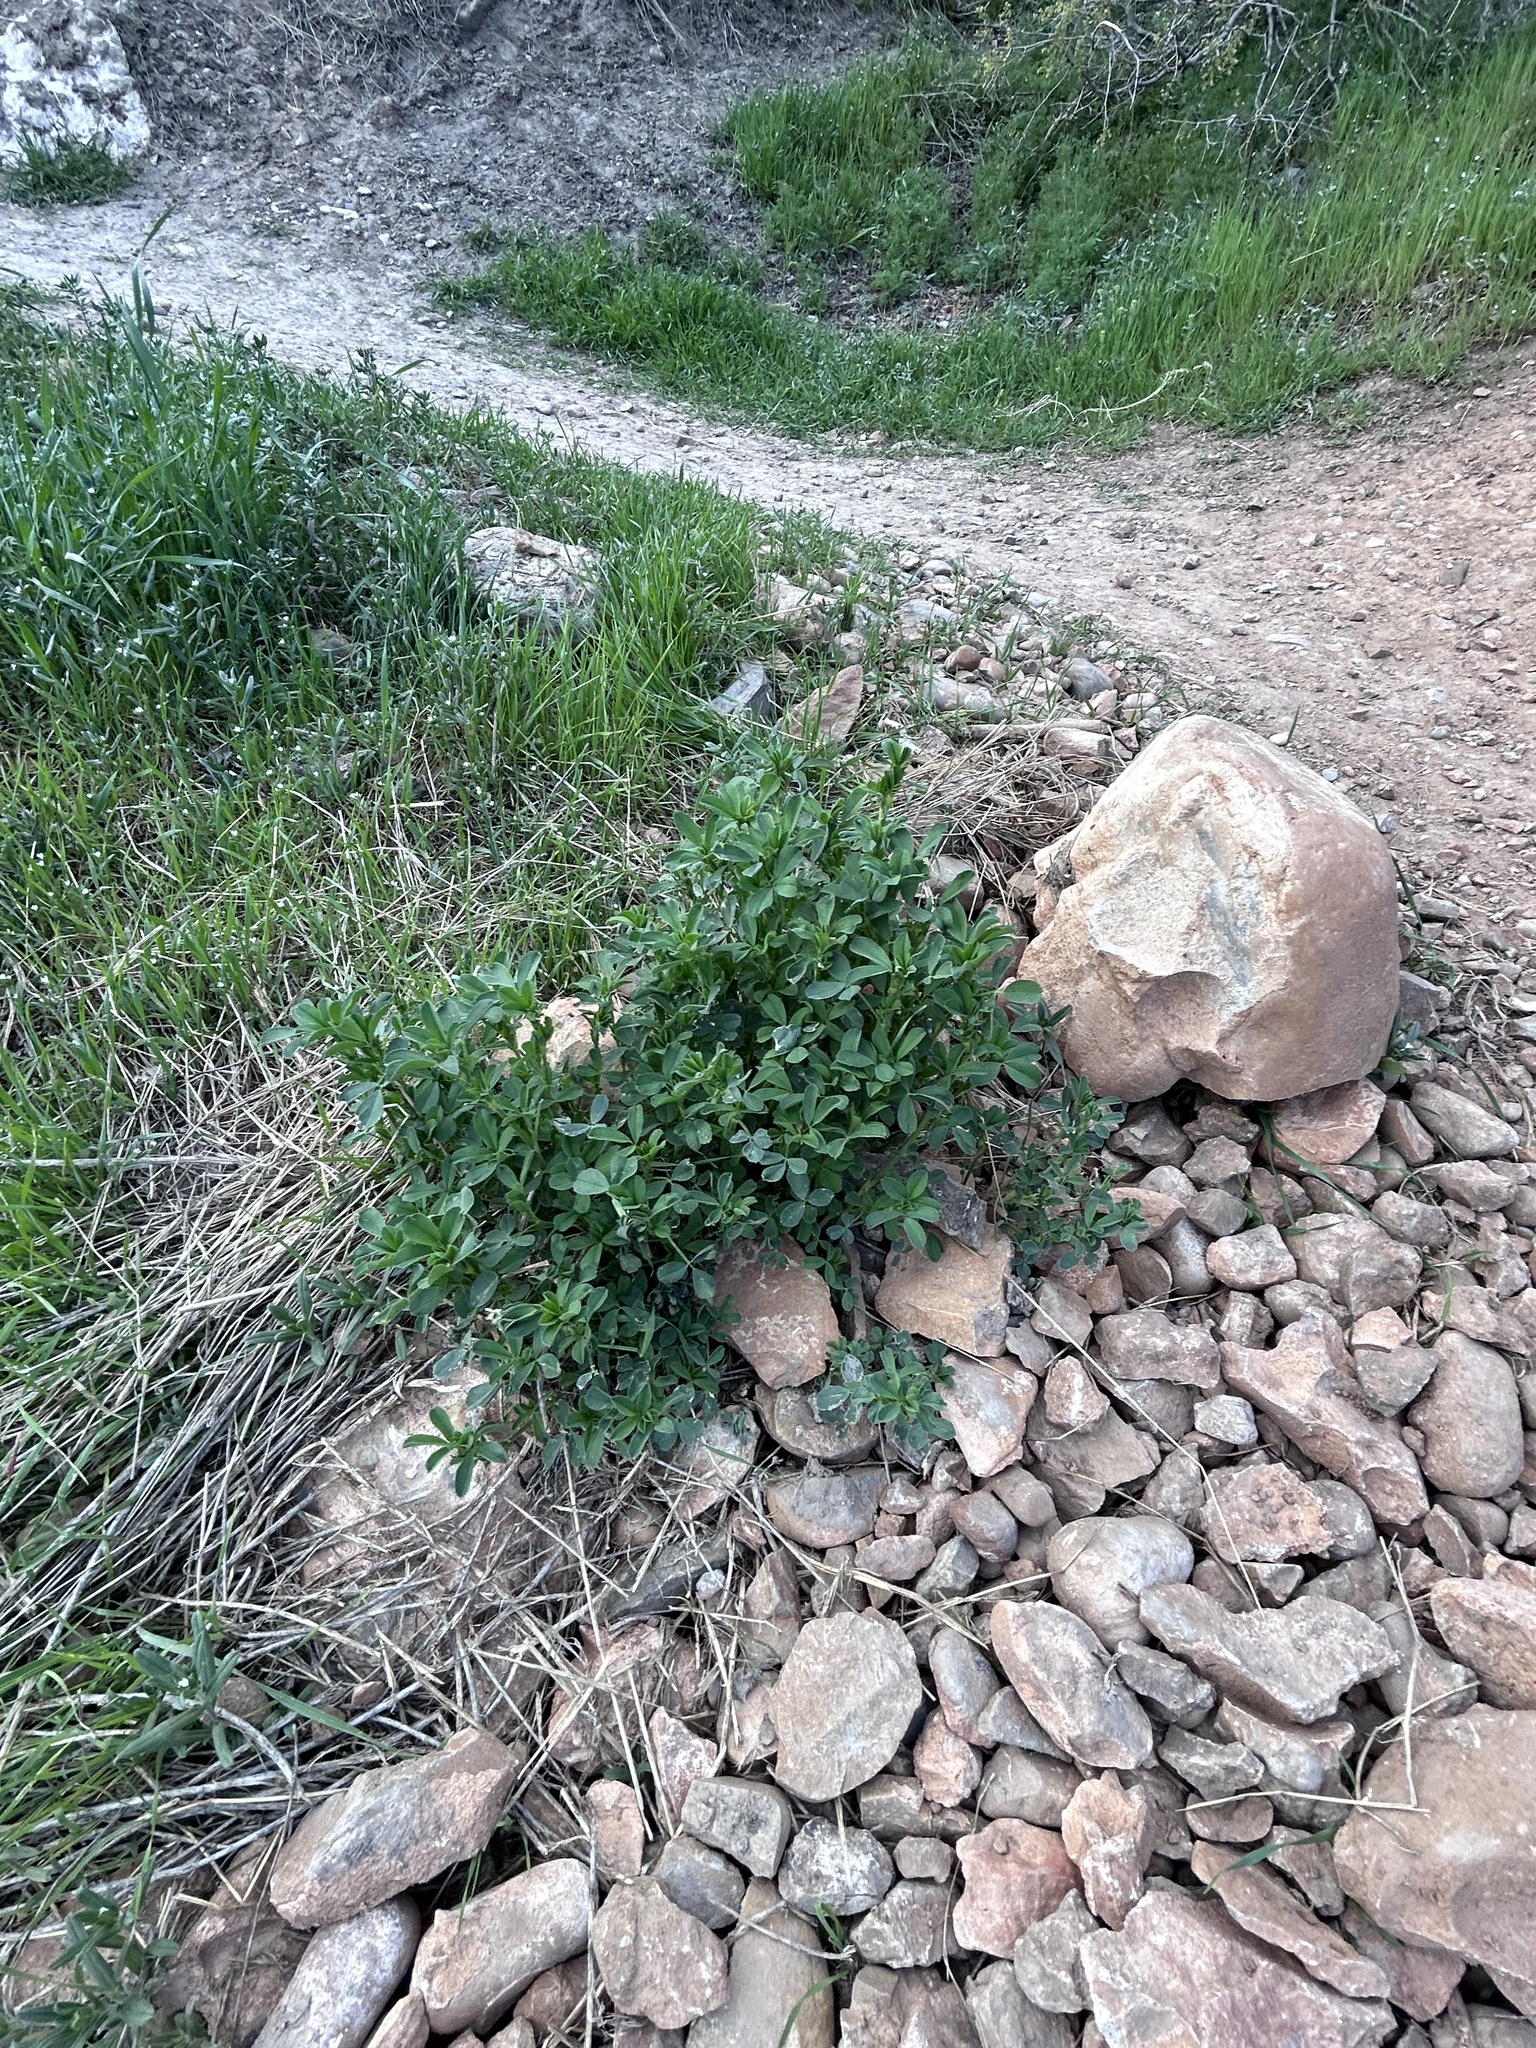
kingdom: Plantae
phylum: Tracheophyta
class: Magnoliopsida
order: Fabales
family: Fabaceae
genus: Medicago
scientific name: Medicago sativa
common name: Alfalfa
